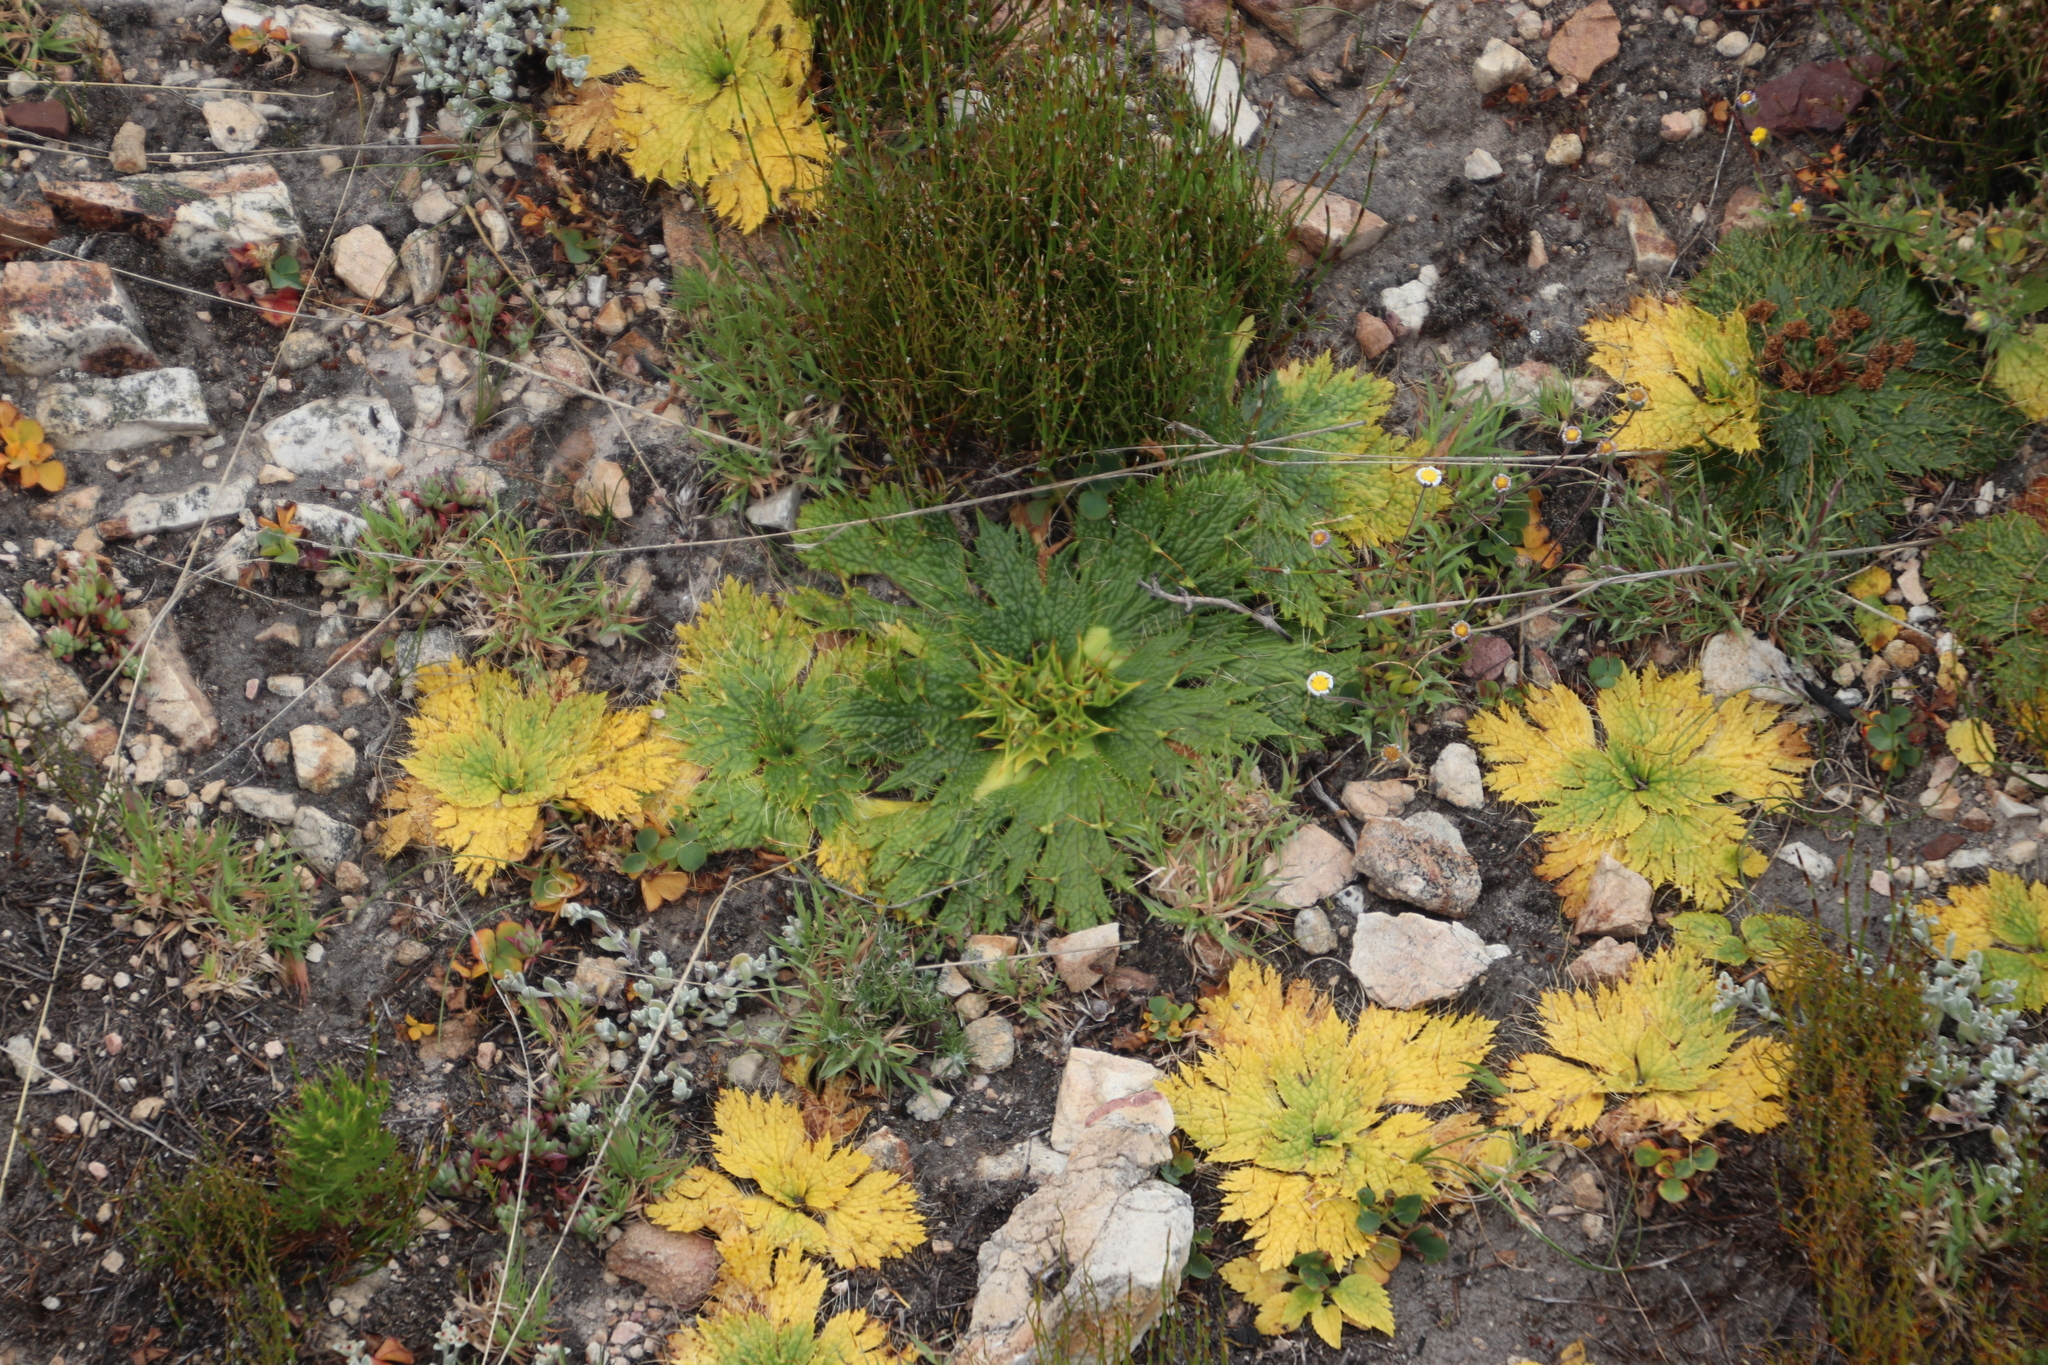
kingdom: Plantae
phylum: Tracheophyta
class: Magnoliopsida
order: Apiales
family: Apiaceae
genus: Arctopus
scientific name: Arctopus echinatus
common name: Platdoring
